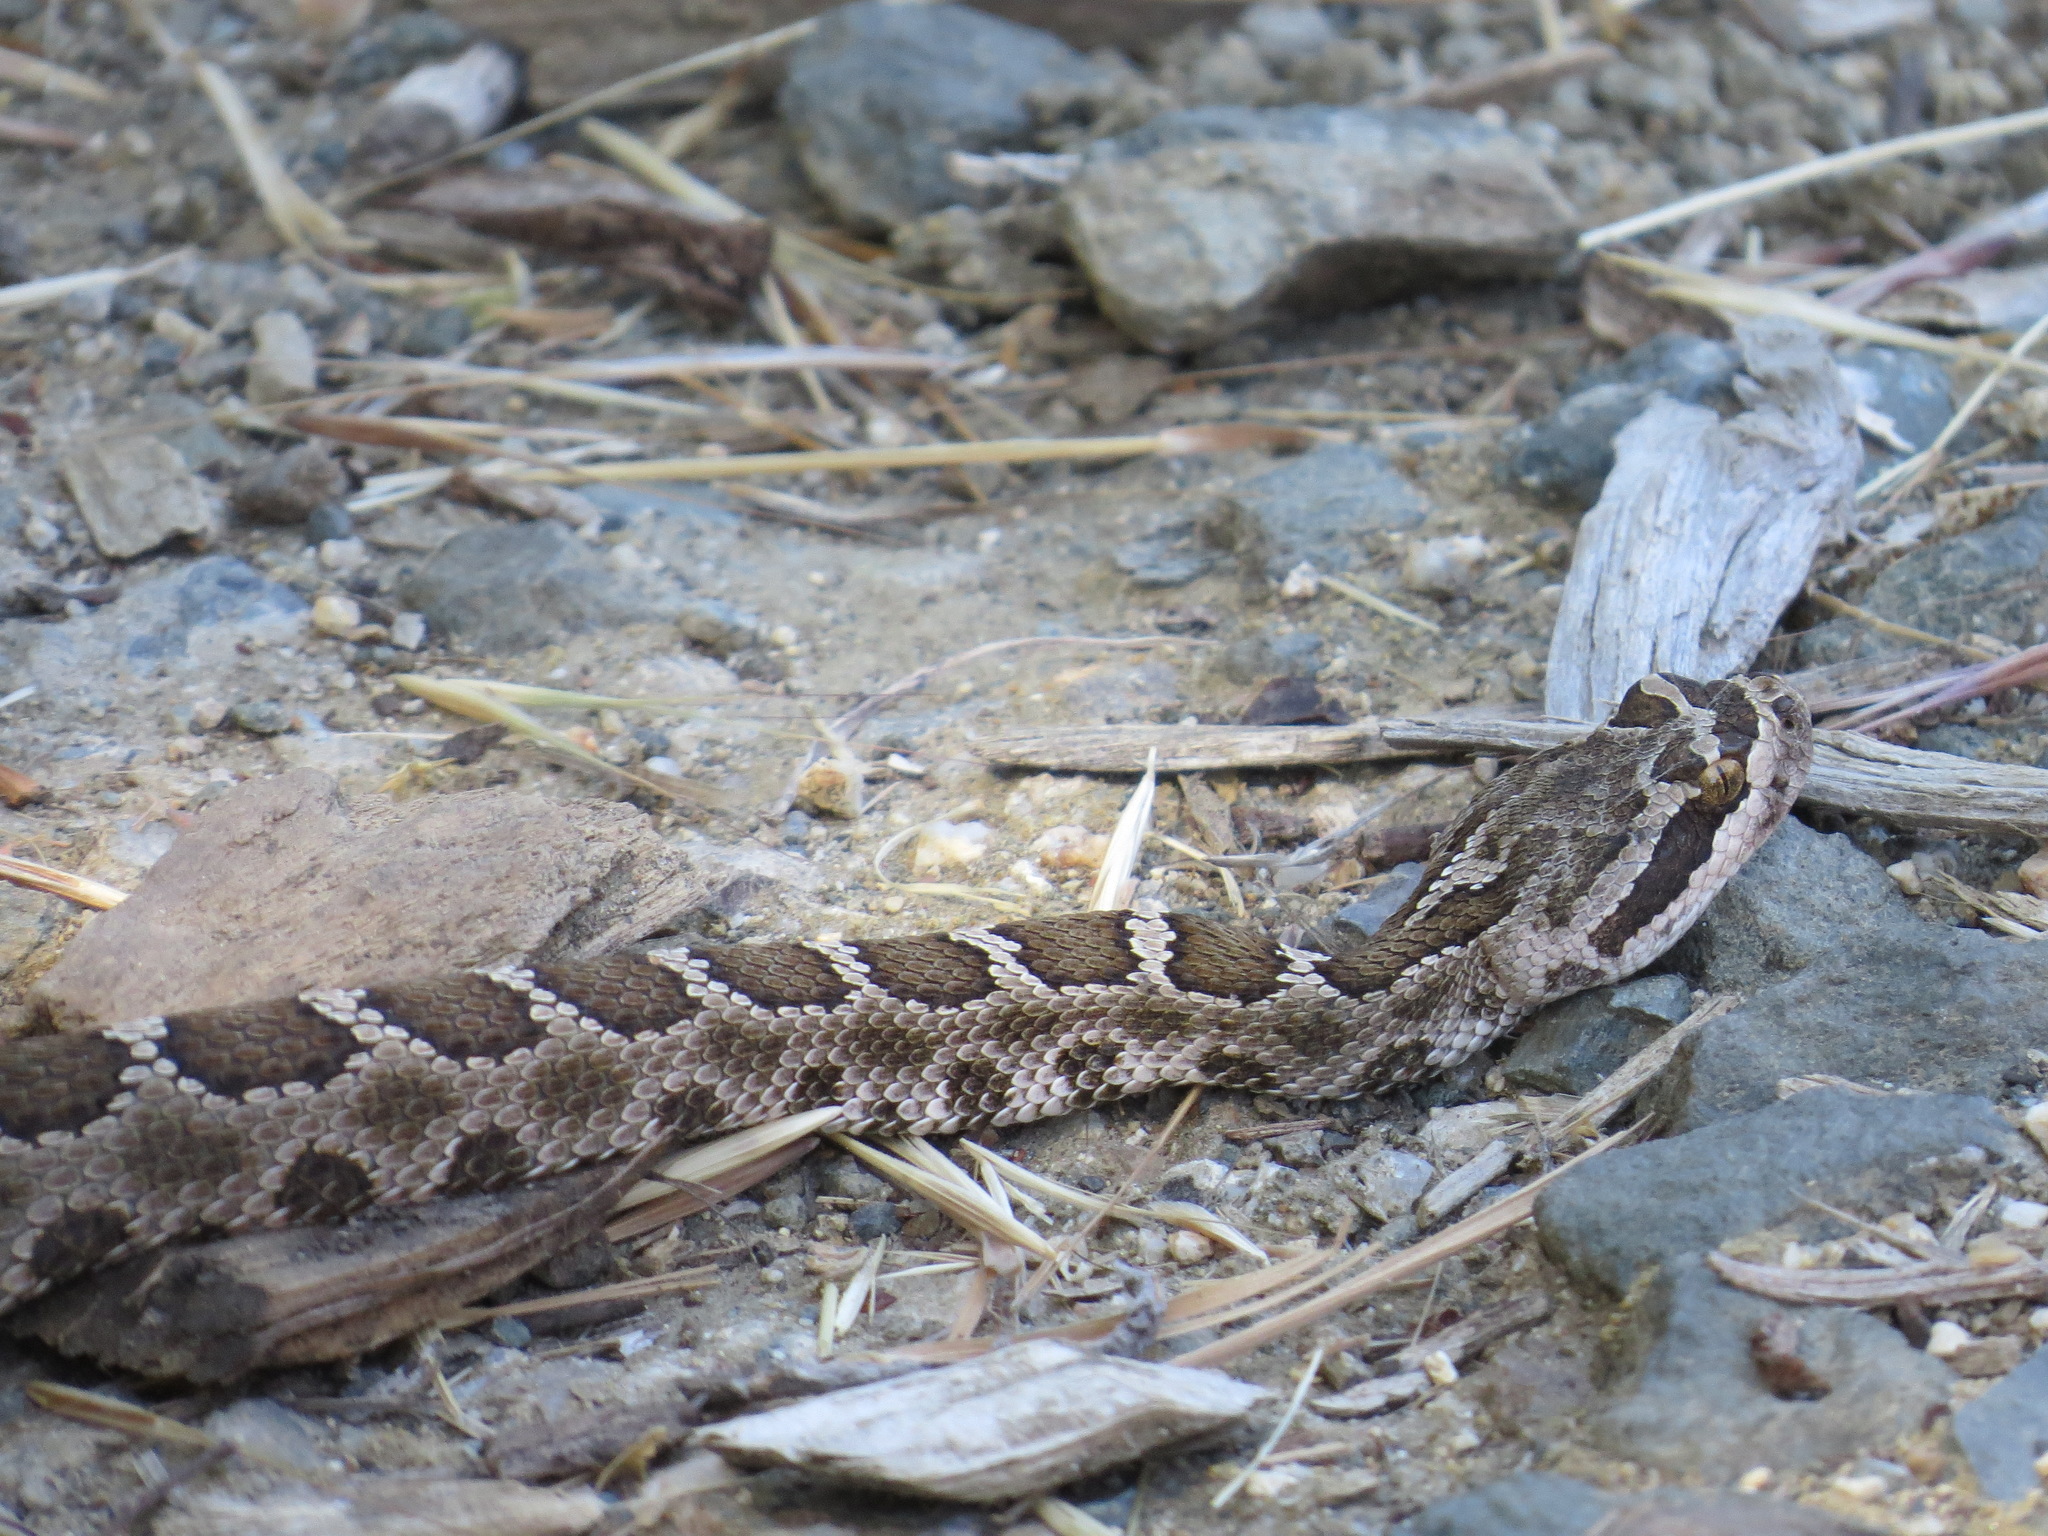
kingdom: Animalia
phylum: Chordata
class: Squamata
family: Viperidae
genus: Crotalus
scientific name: Crotalus oreganus
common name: Abyssus
